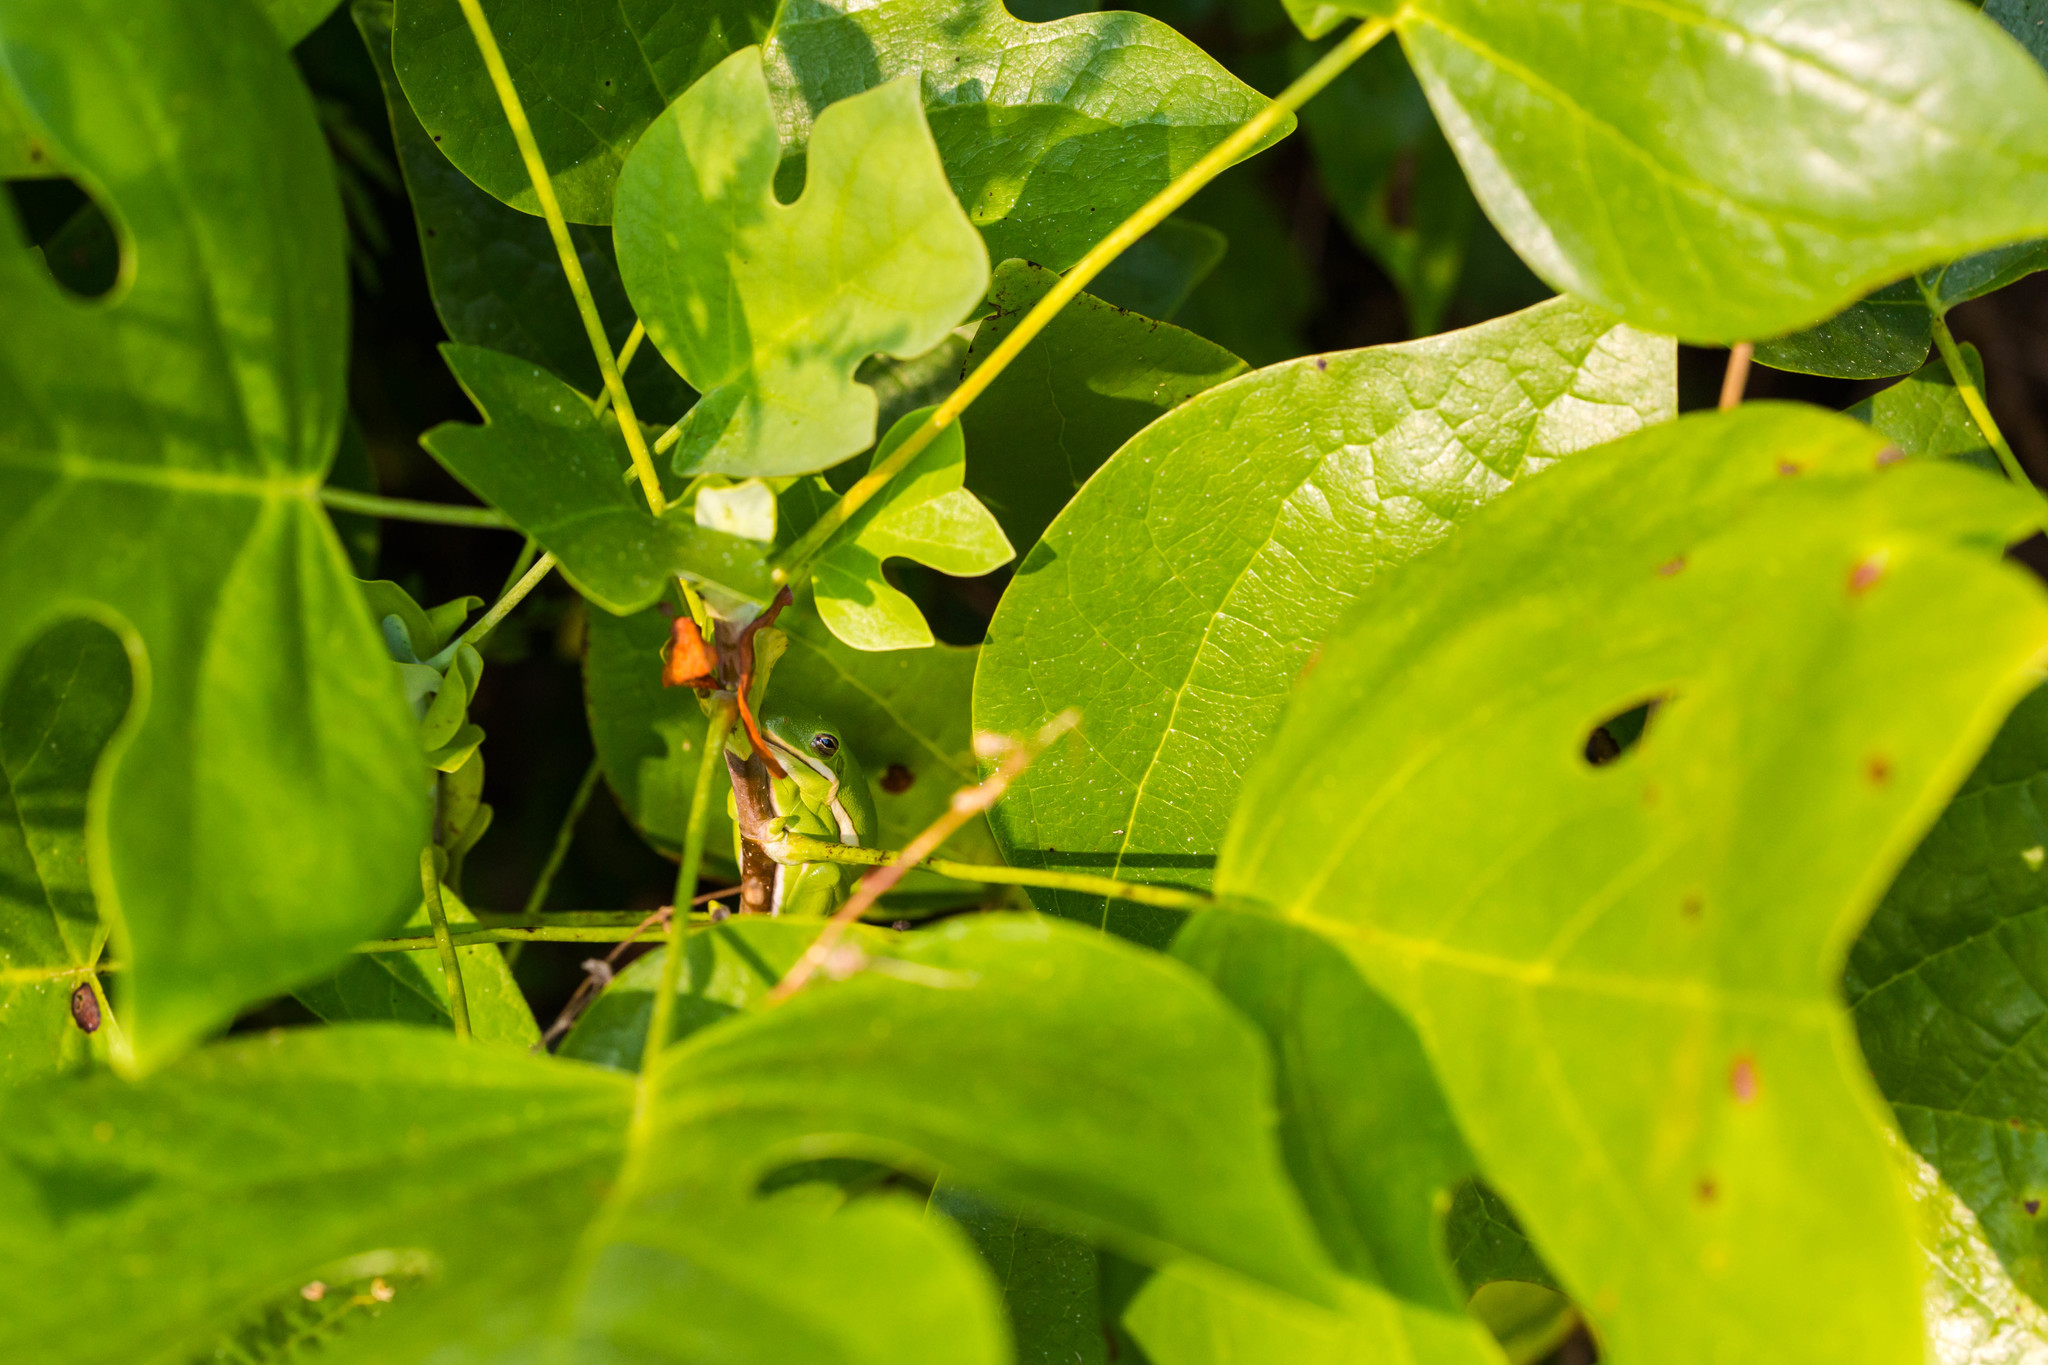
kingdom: Animalia
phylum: Chordata
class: Amphibia
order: Anura
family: Hylidae
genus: Dryophytes
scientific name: Dryophytes cinereus
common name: Green treefrog
